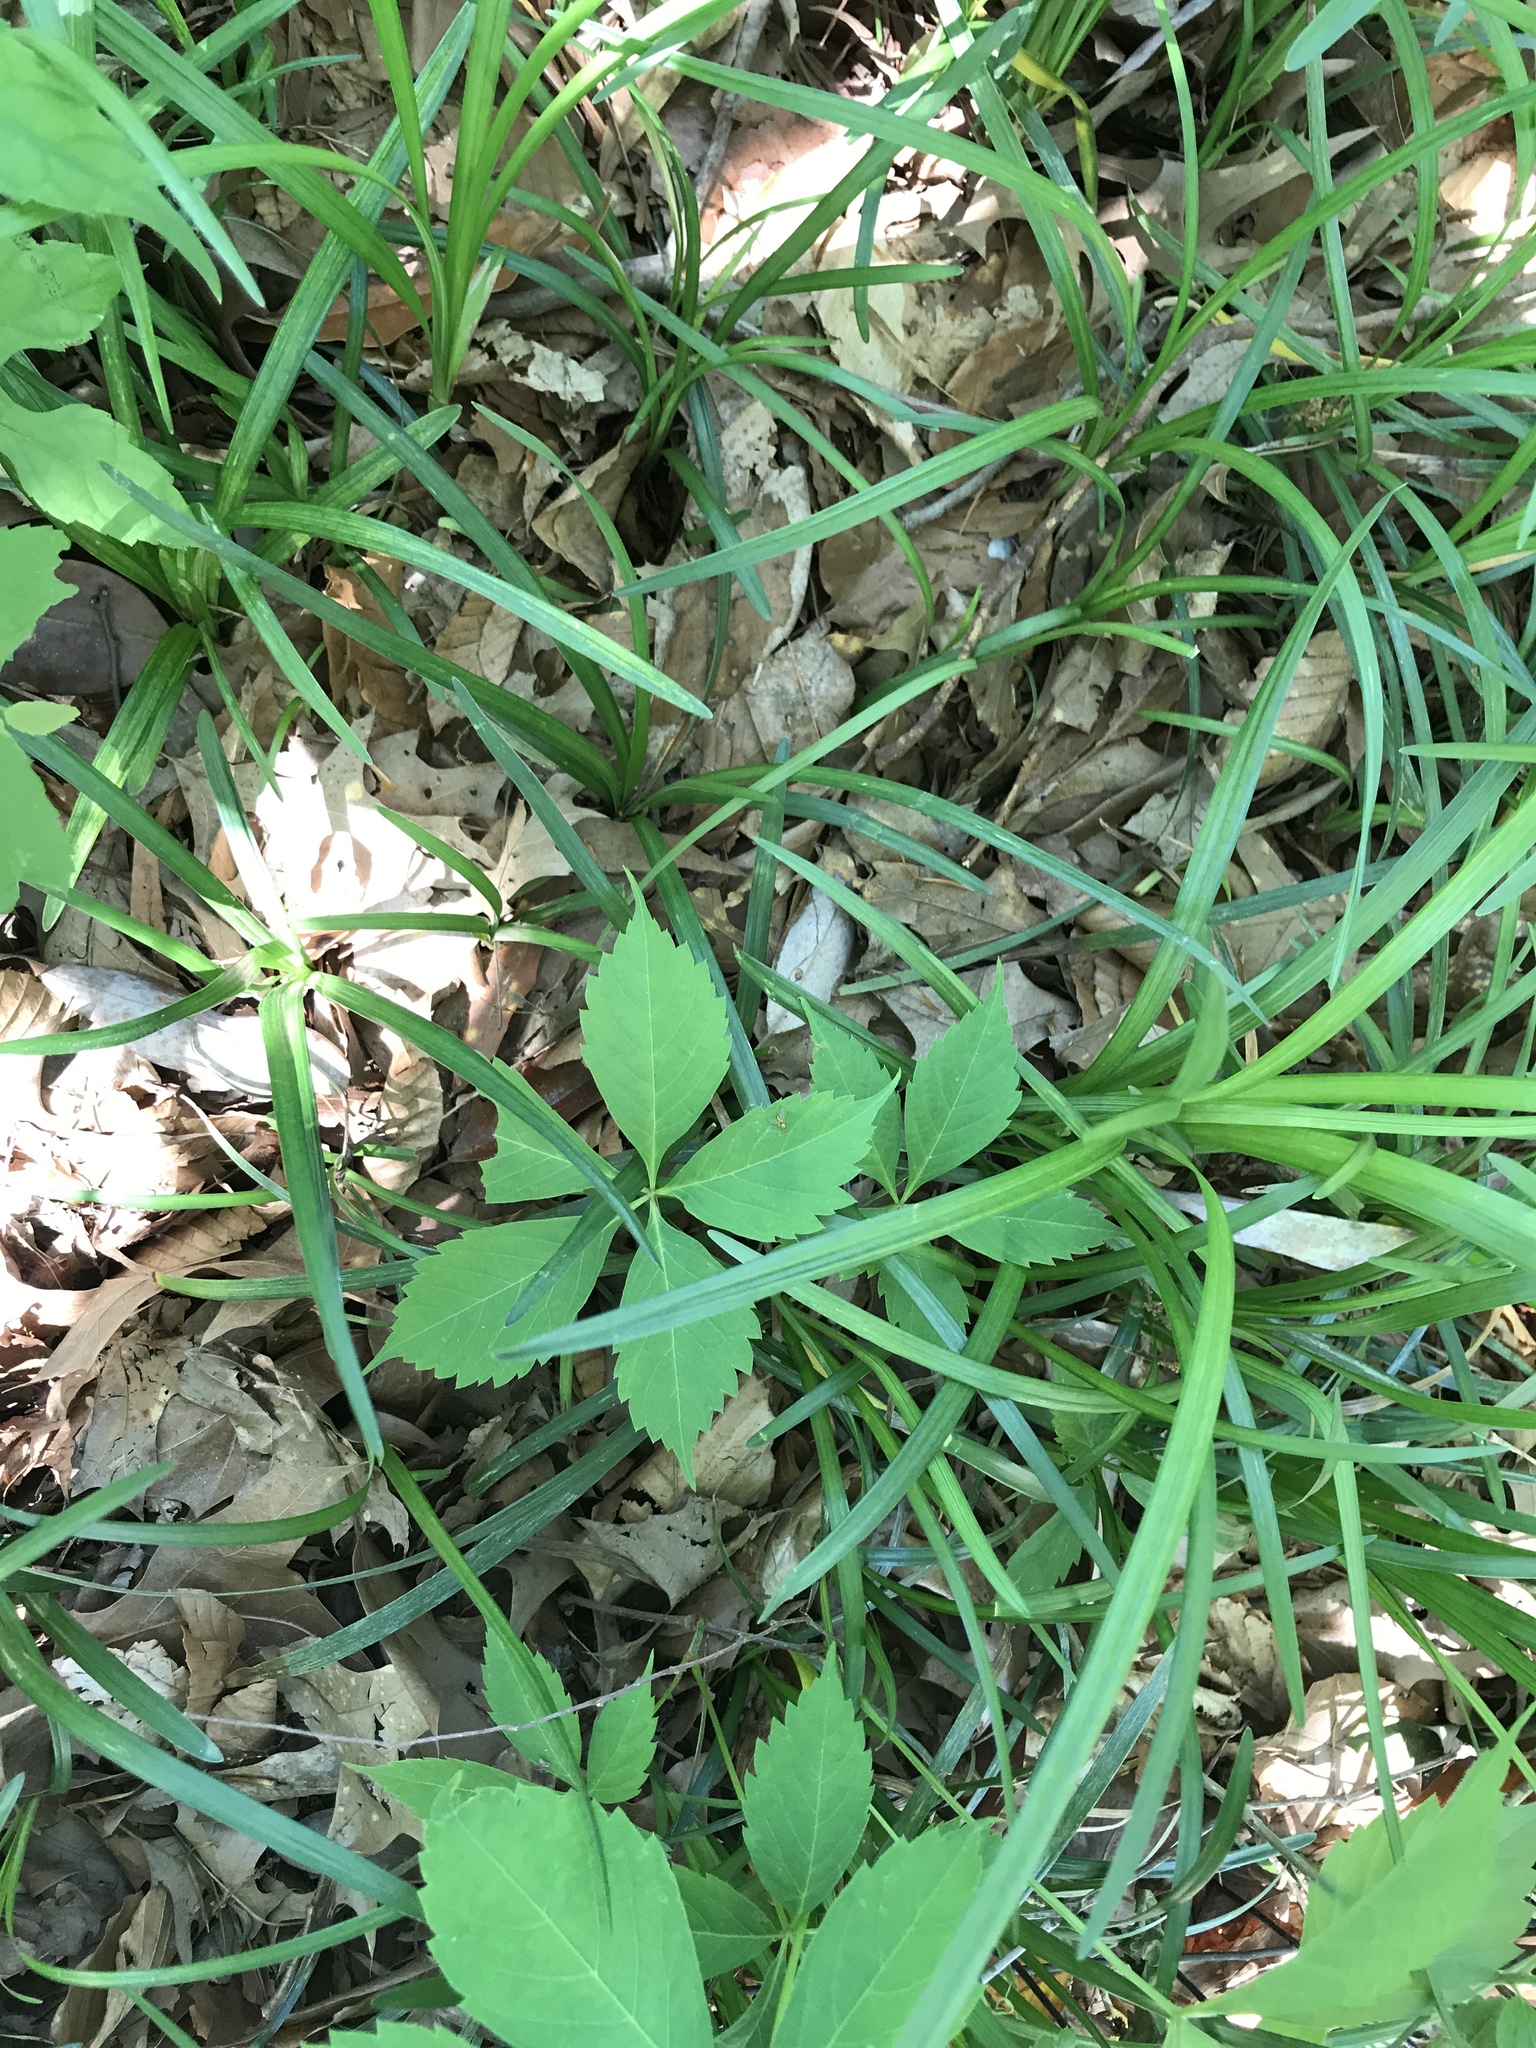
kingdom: Plantae
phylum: Tracheophyta
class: Magnoliopsida
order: Vitales
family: Vitaceae
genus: Parthenocissus
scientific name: Parthenocissus quinquefolia
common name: Virginia-creeper
